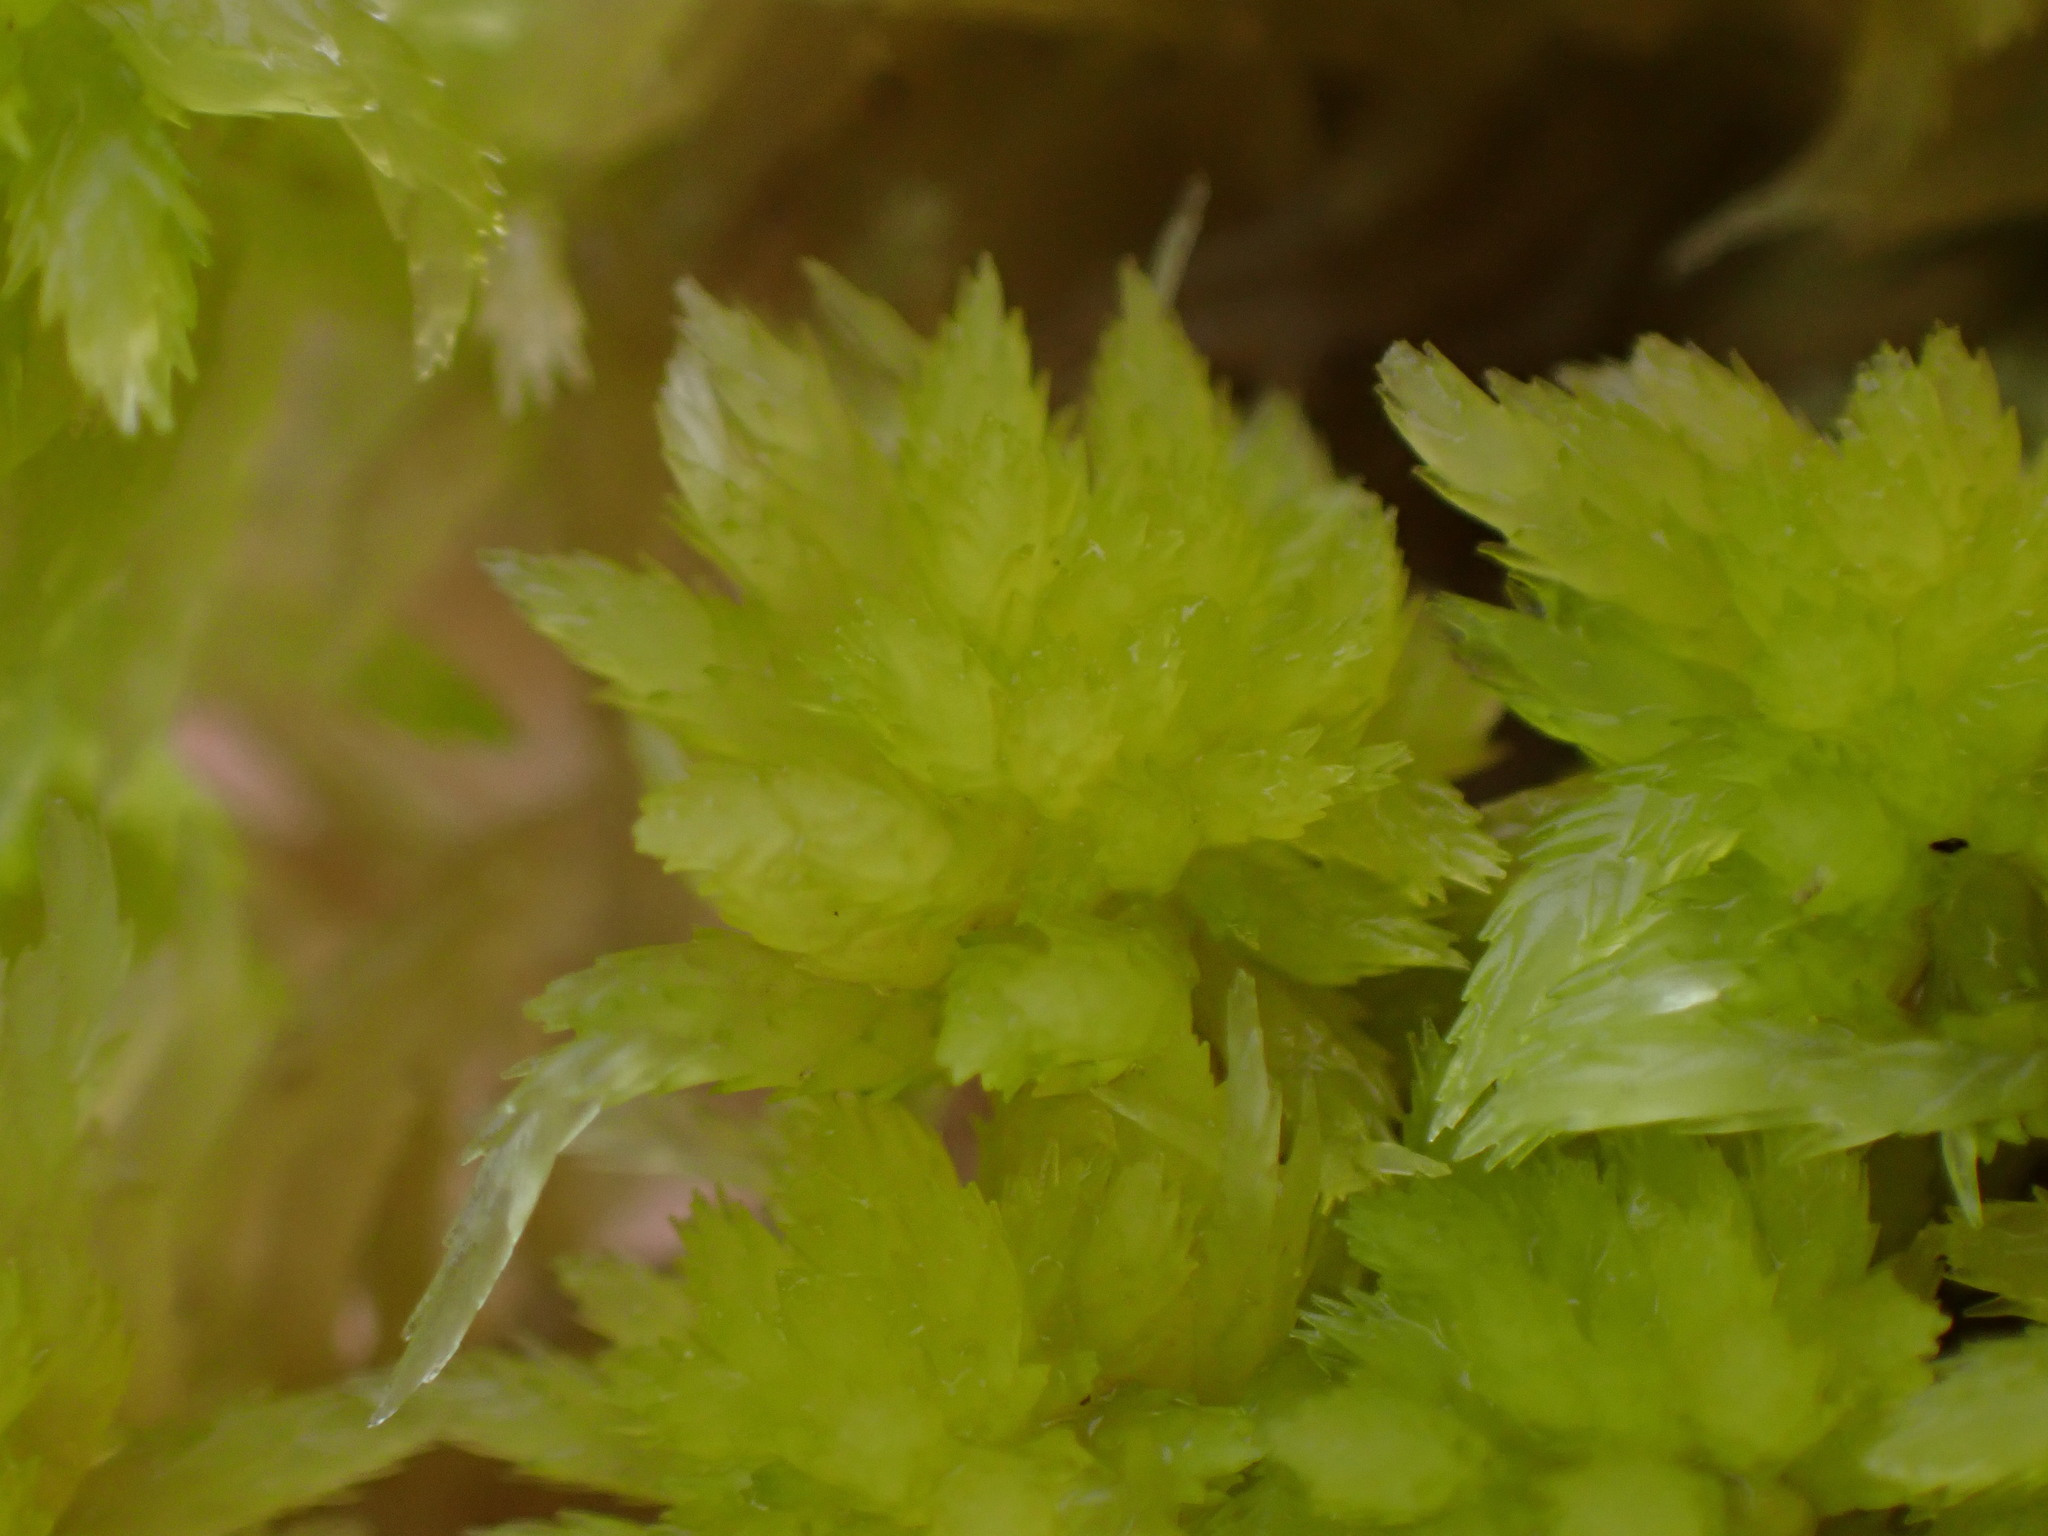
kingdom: Plantae
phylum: Bryophyta
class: Sphagnopsida
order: Sphagnales
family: Sphagnaceae
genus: Sphagnum
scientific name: Sphagnum rubiginosum
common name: Variegated peat moss
